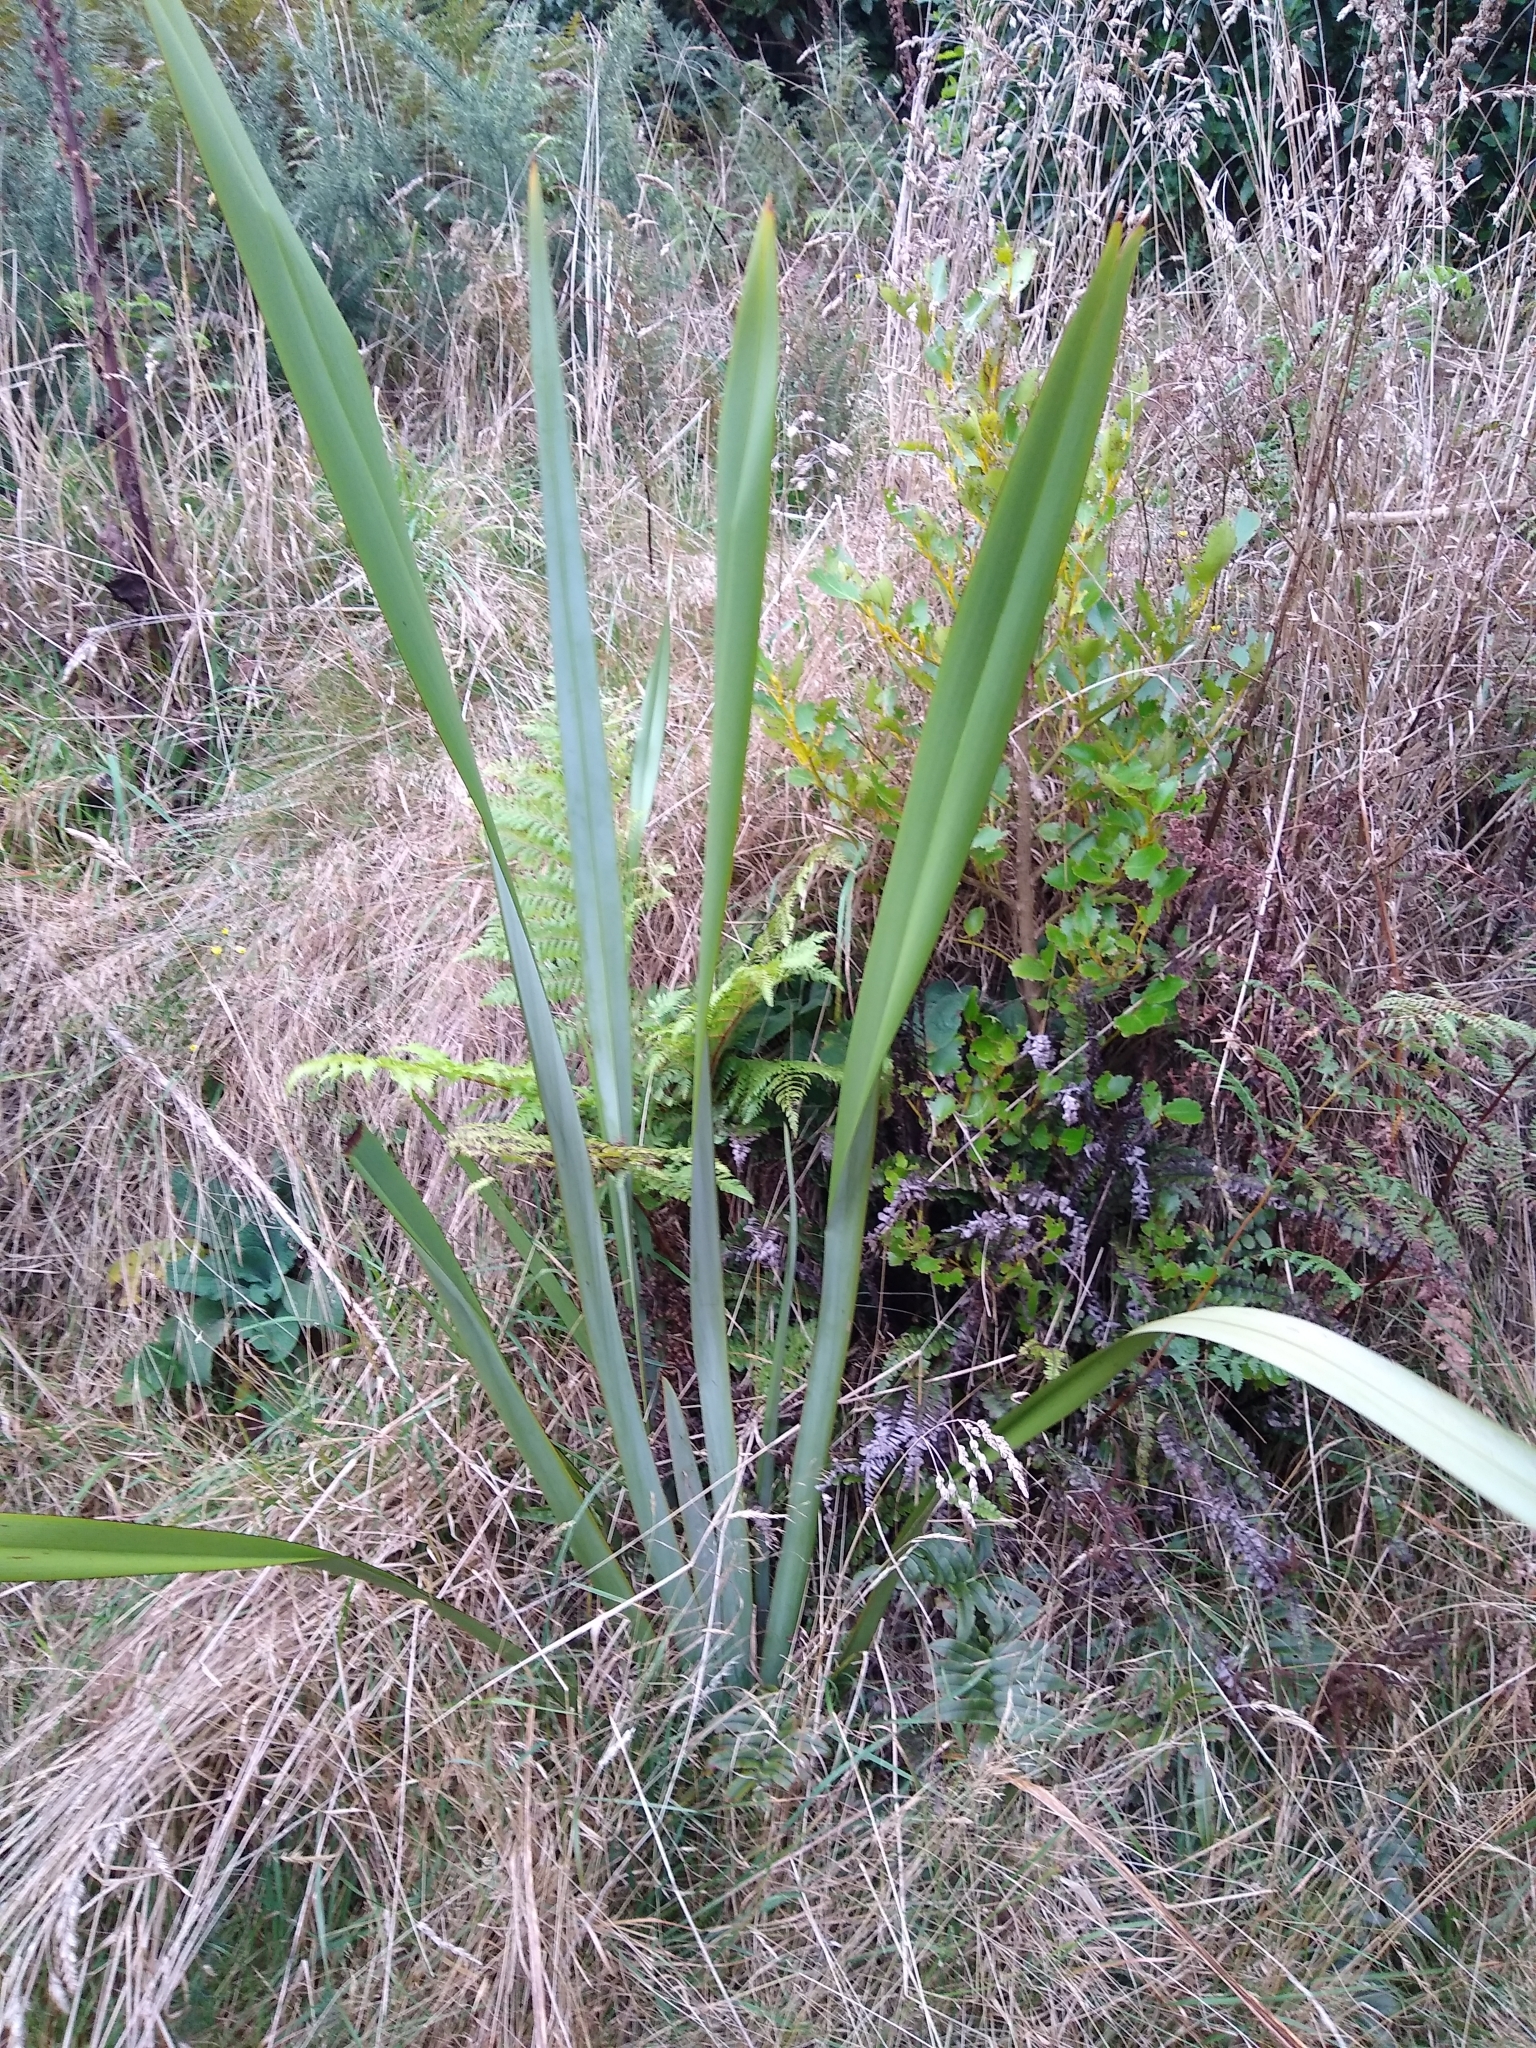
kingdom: Plantae
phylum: Tracheophyta
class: Liliopsida
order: Asparagales
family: Asphodelaceae
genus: Phormium
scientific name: Phormium tenax
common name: New zealand flax
